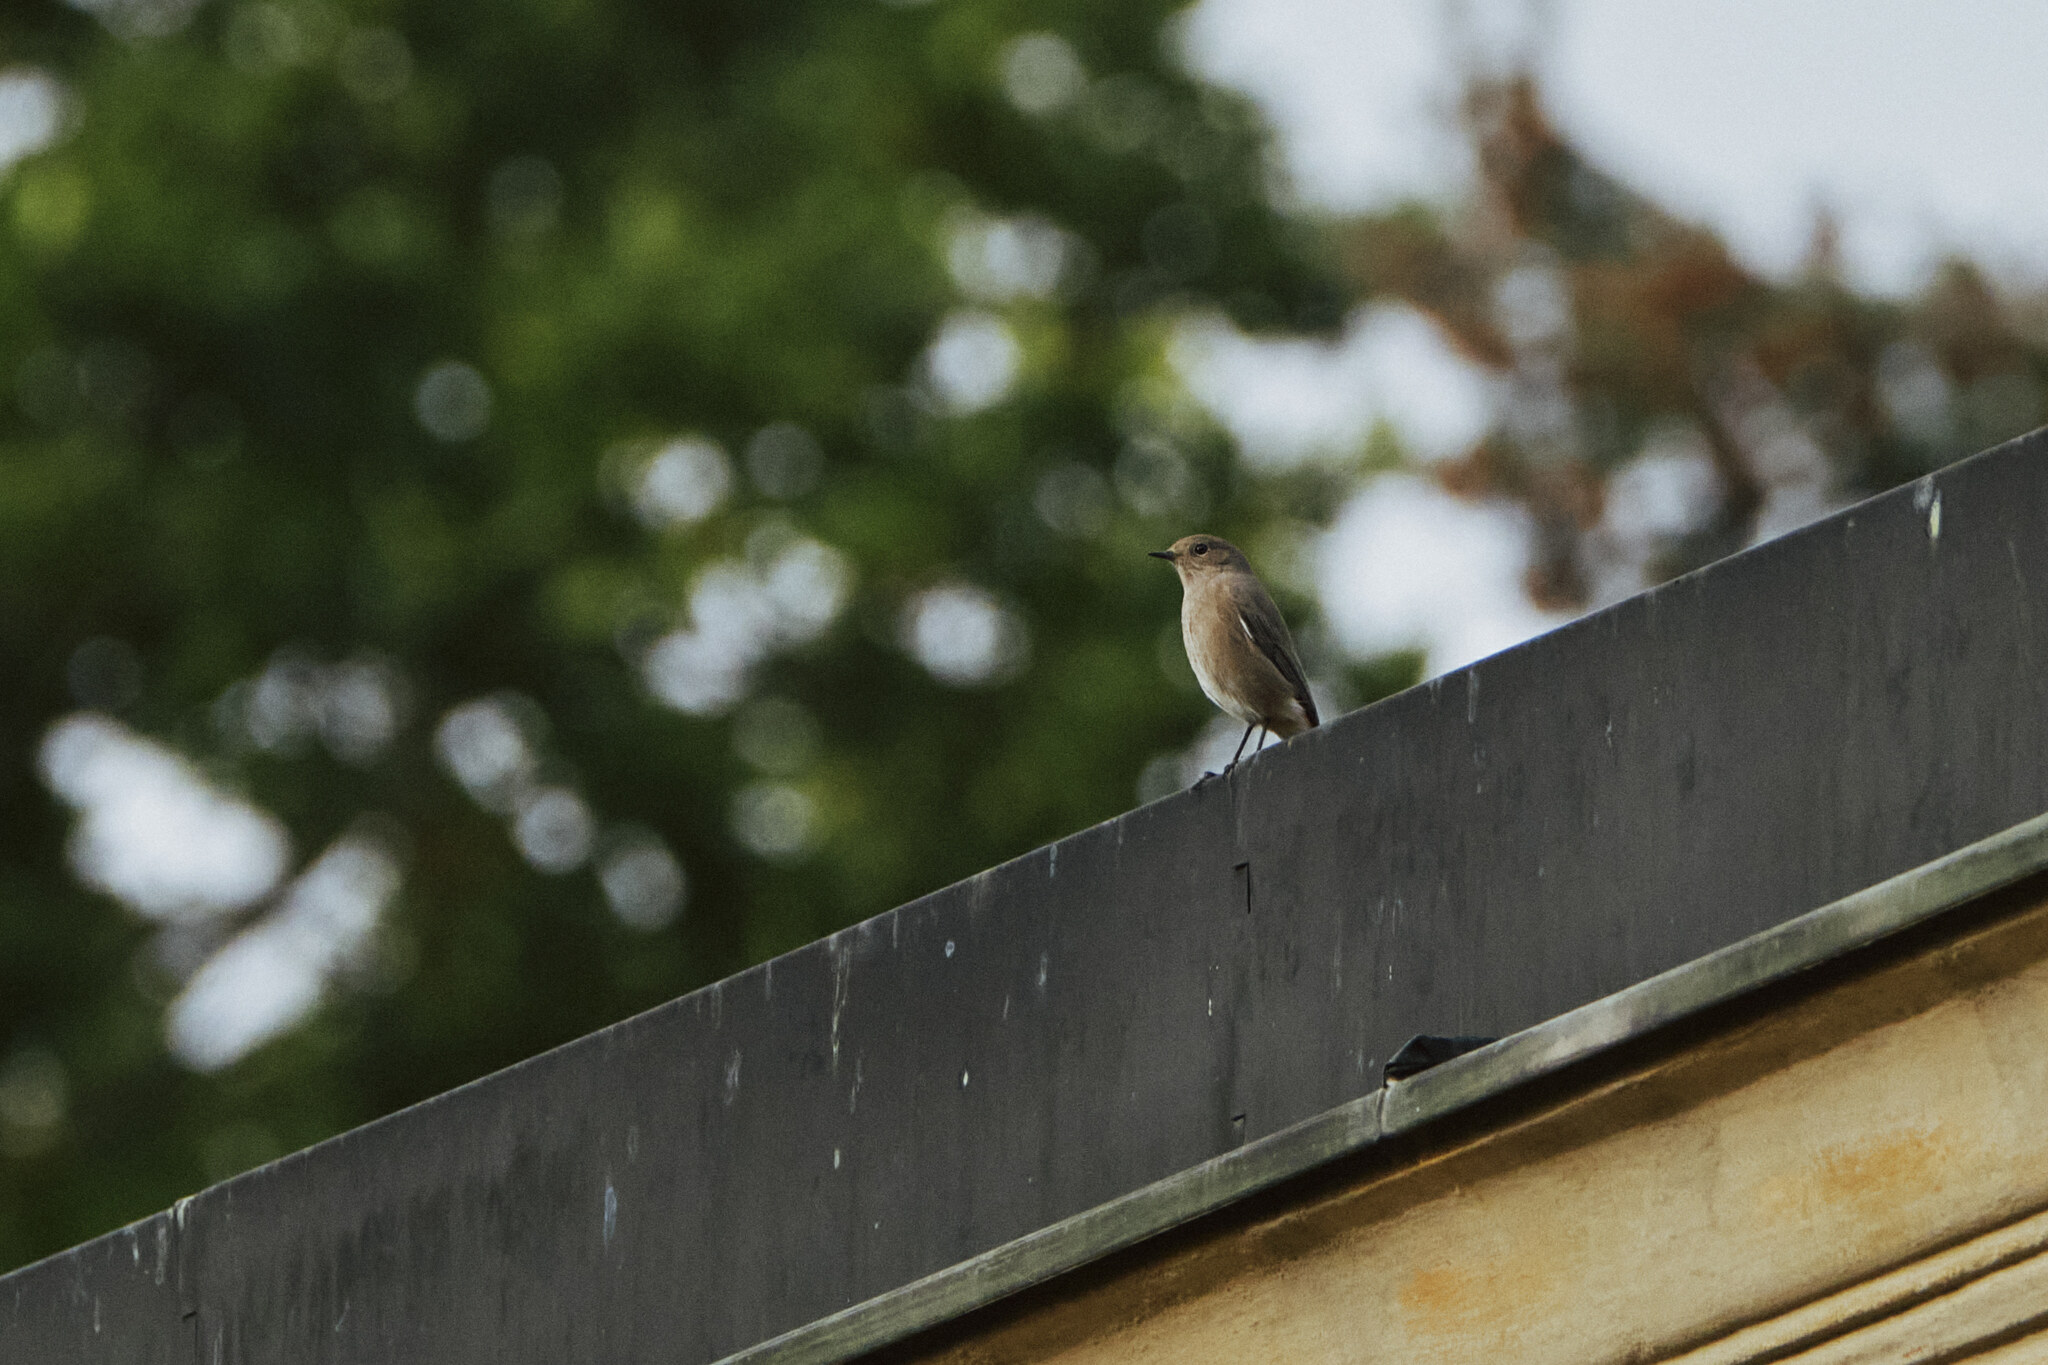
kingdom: Animalia
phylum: Chordata
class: Aves
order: Passeriformes
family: Muscicapidae
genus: Phoenicurus
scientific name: Phoenicurus phoenicurus
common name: Common redstart
